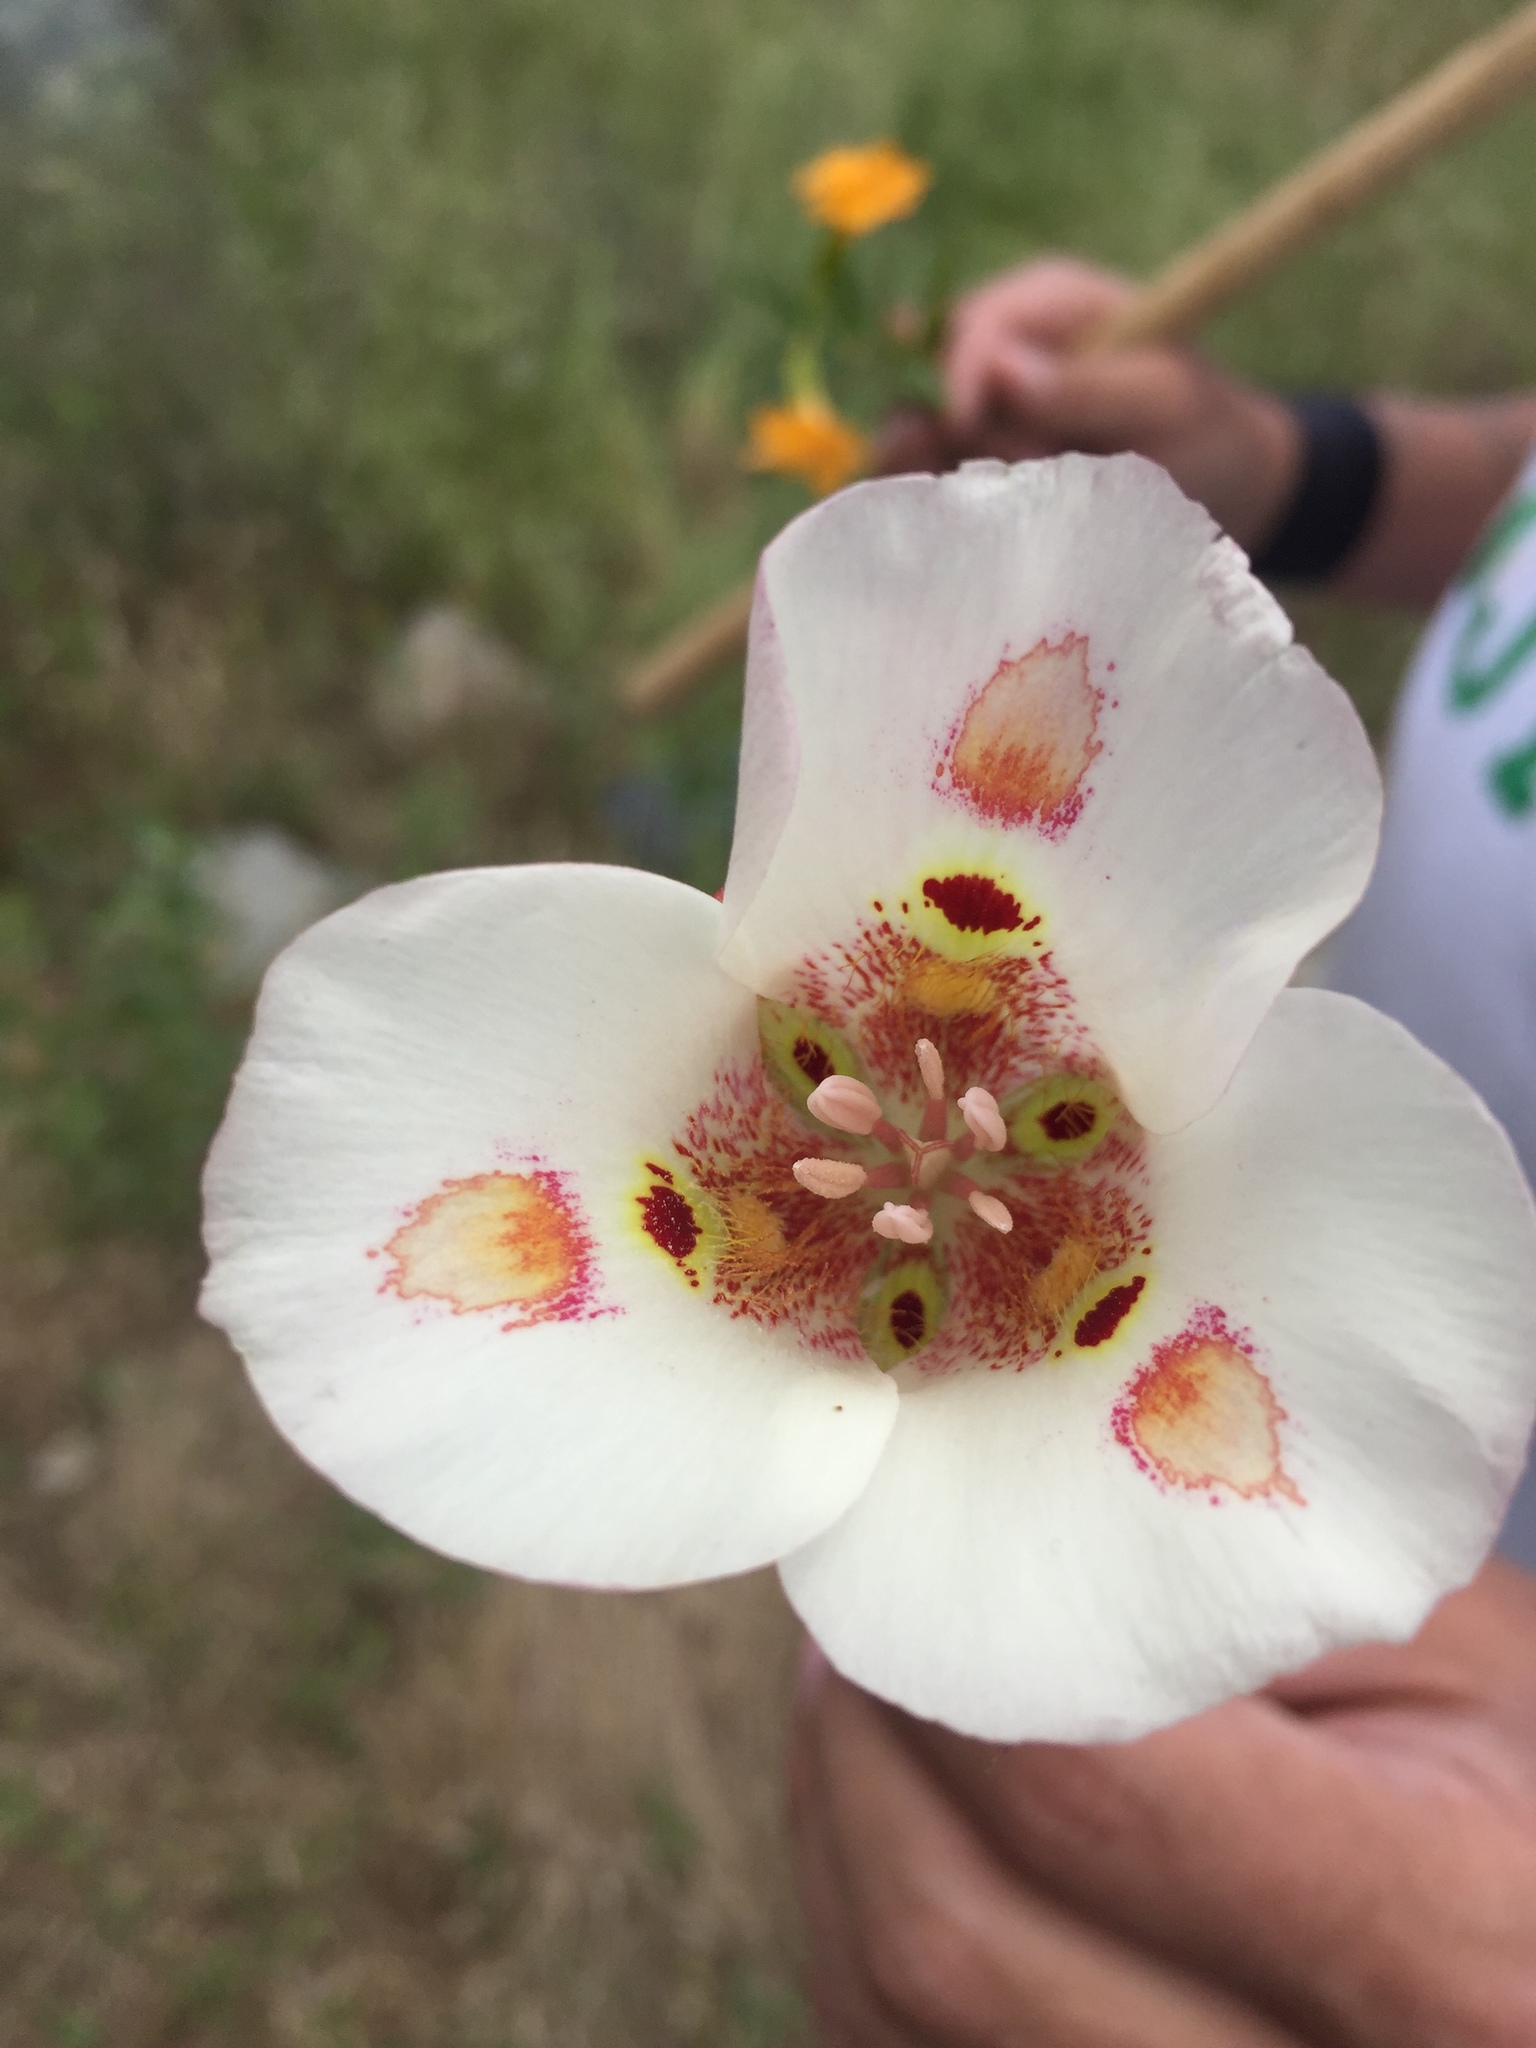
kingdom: Plantae
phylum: Tracheophyta
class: Liliopsida
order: Liliales
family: Liliaceae
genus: Calochortus
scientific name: Calochortus venustus
